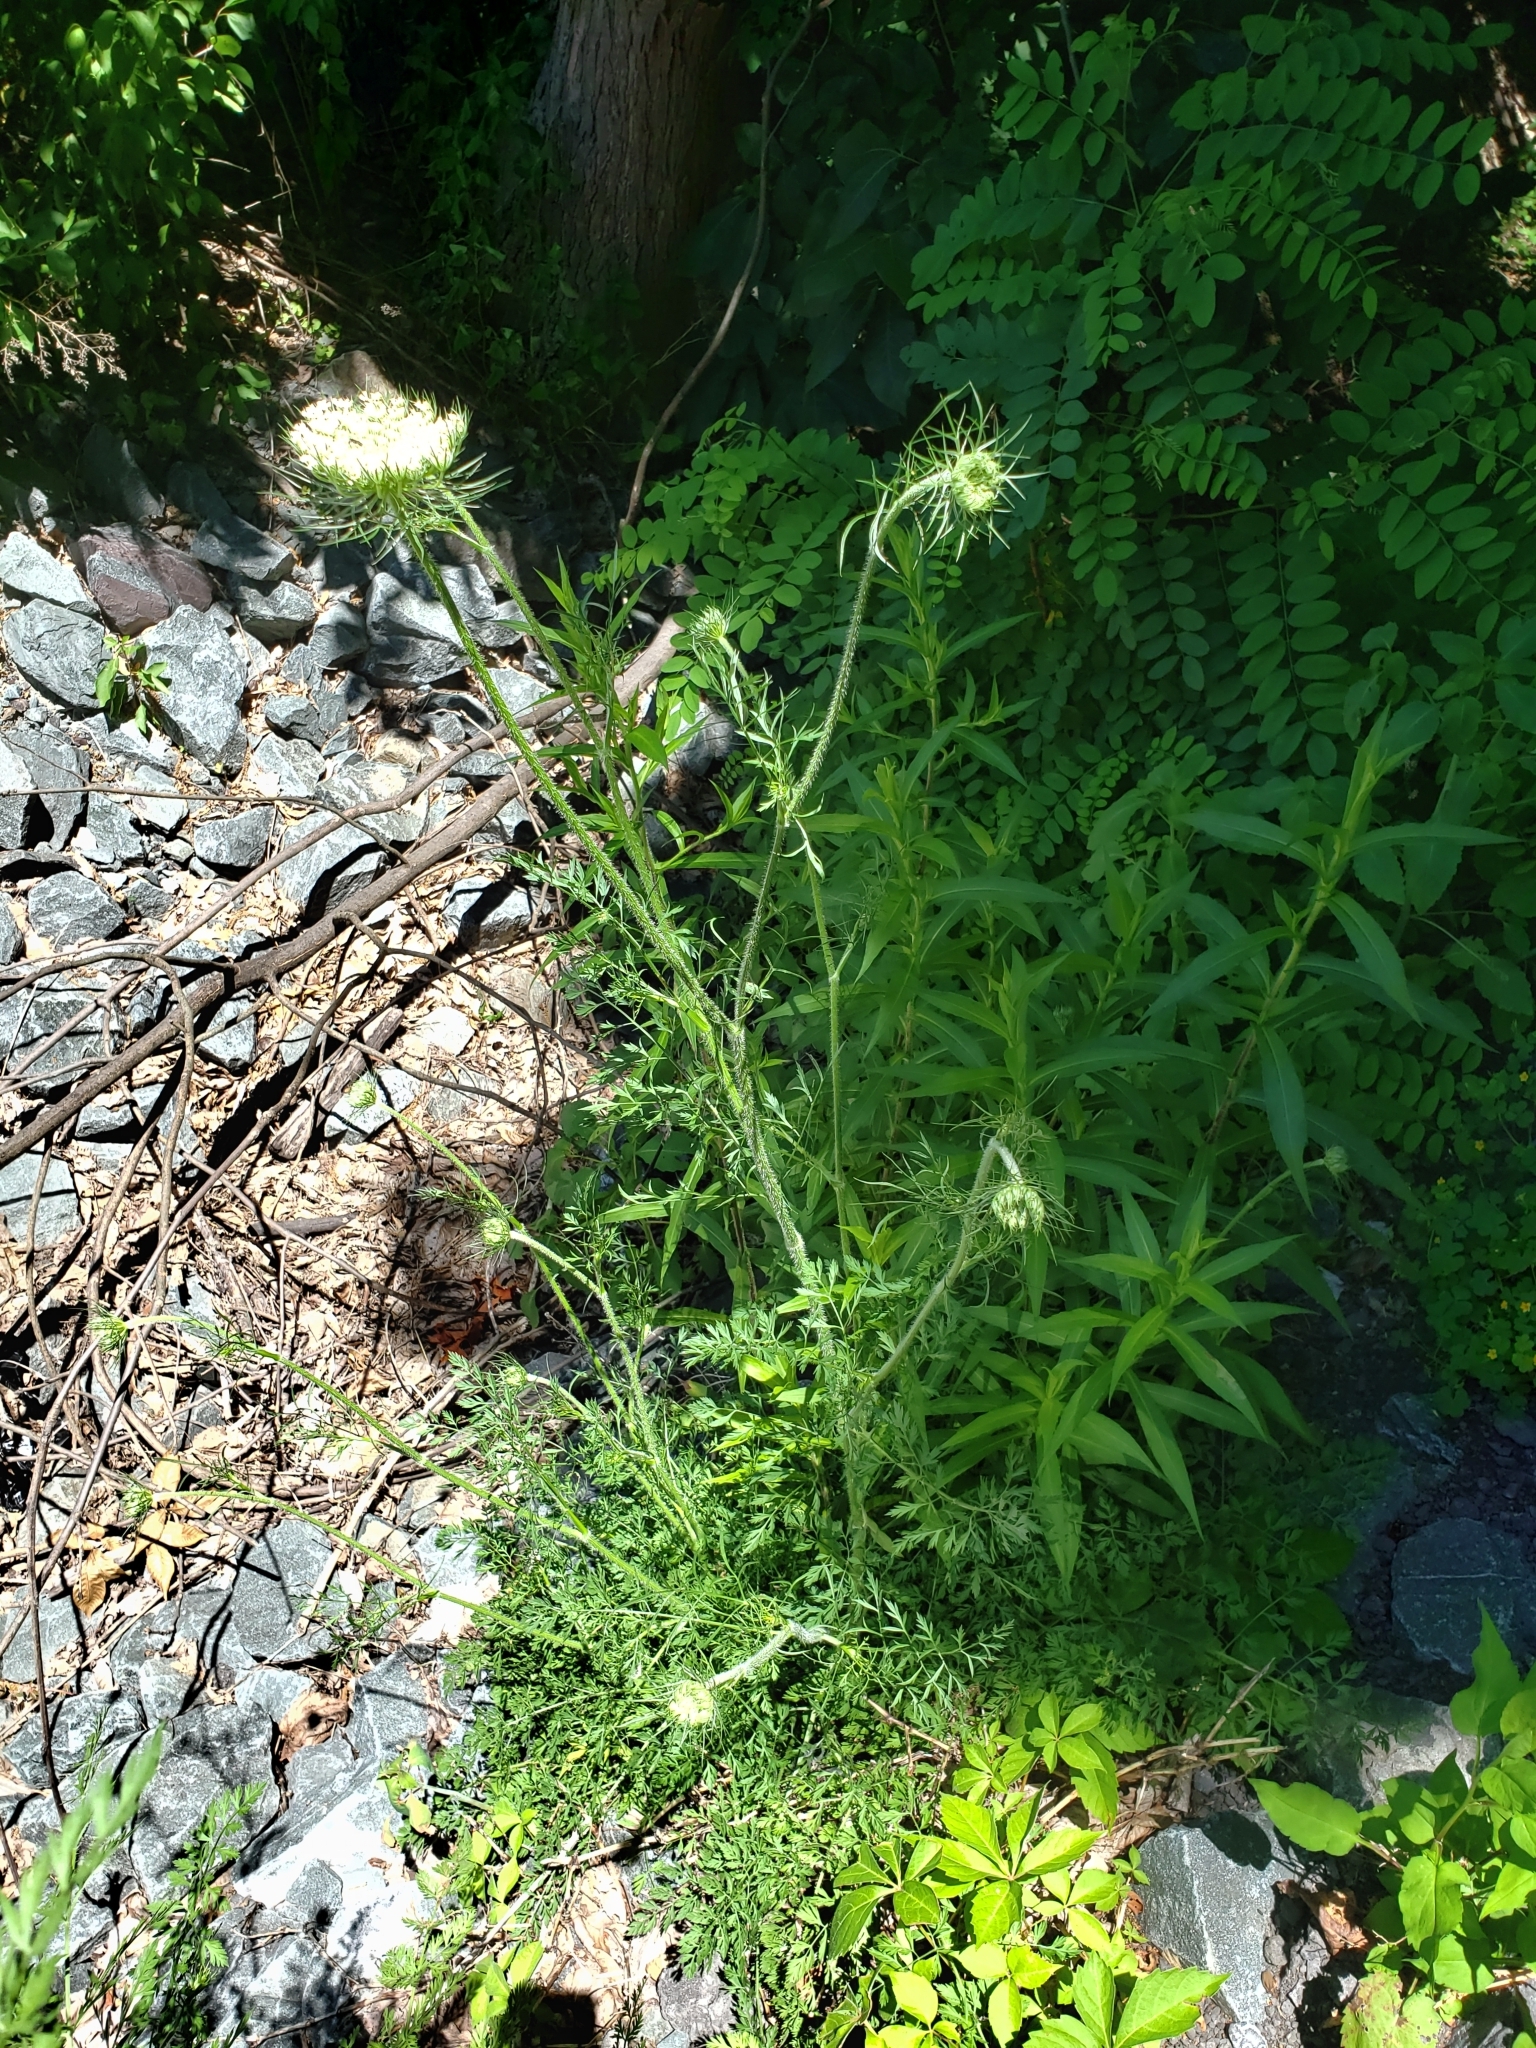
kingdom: Plantae
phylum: Tracheophyta
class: Magnoliopsida
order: Apiales
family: Apiaceae
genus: Daucus
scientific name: Daucus carota
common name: Wild carrot
